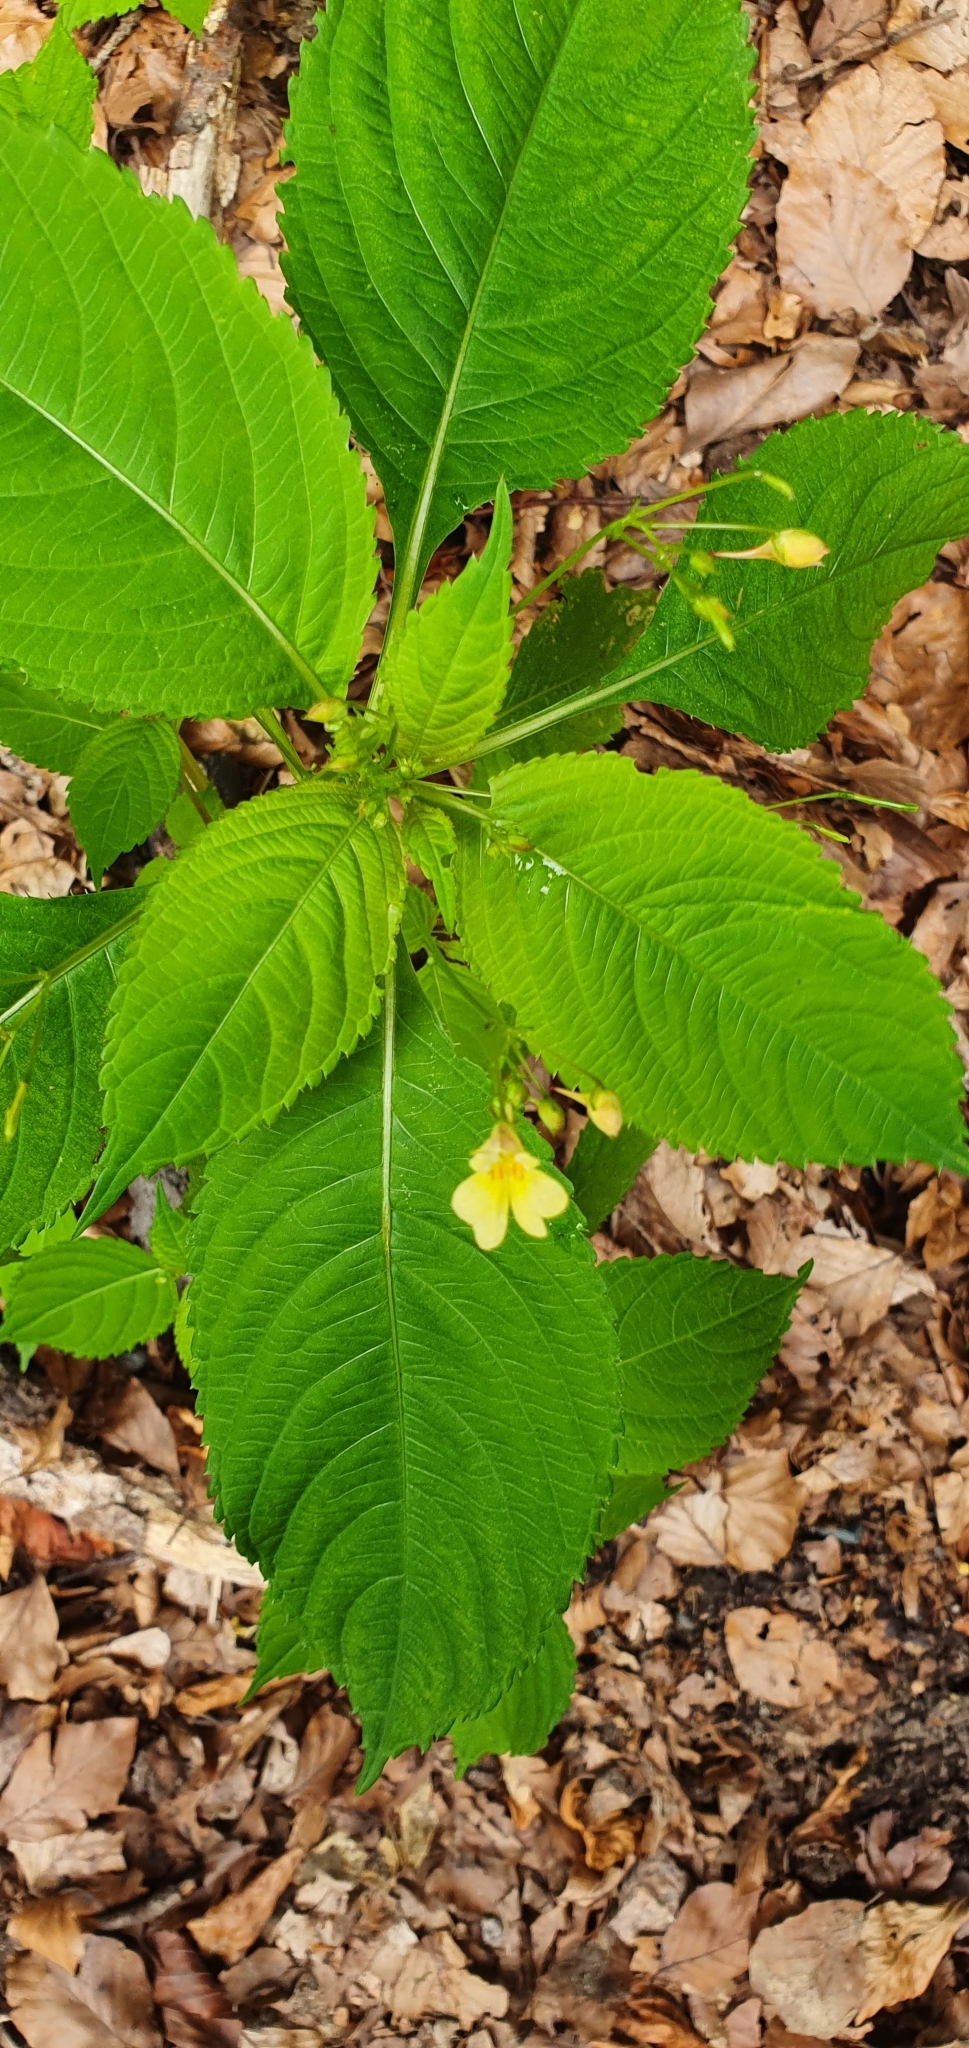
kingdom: Plantae
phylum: Tracheophyta
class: Magnoliopsida
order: Ericales
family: Balsaminaceae
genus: Impatiens
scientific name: Impatiens parviflora
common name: Small balsam
